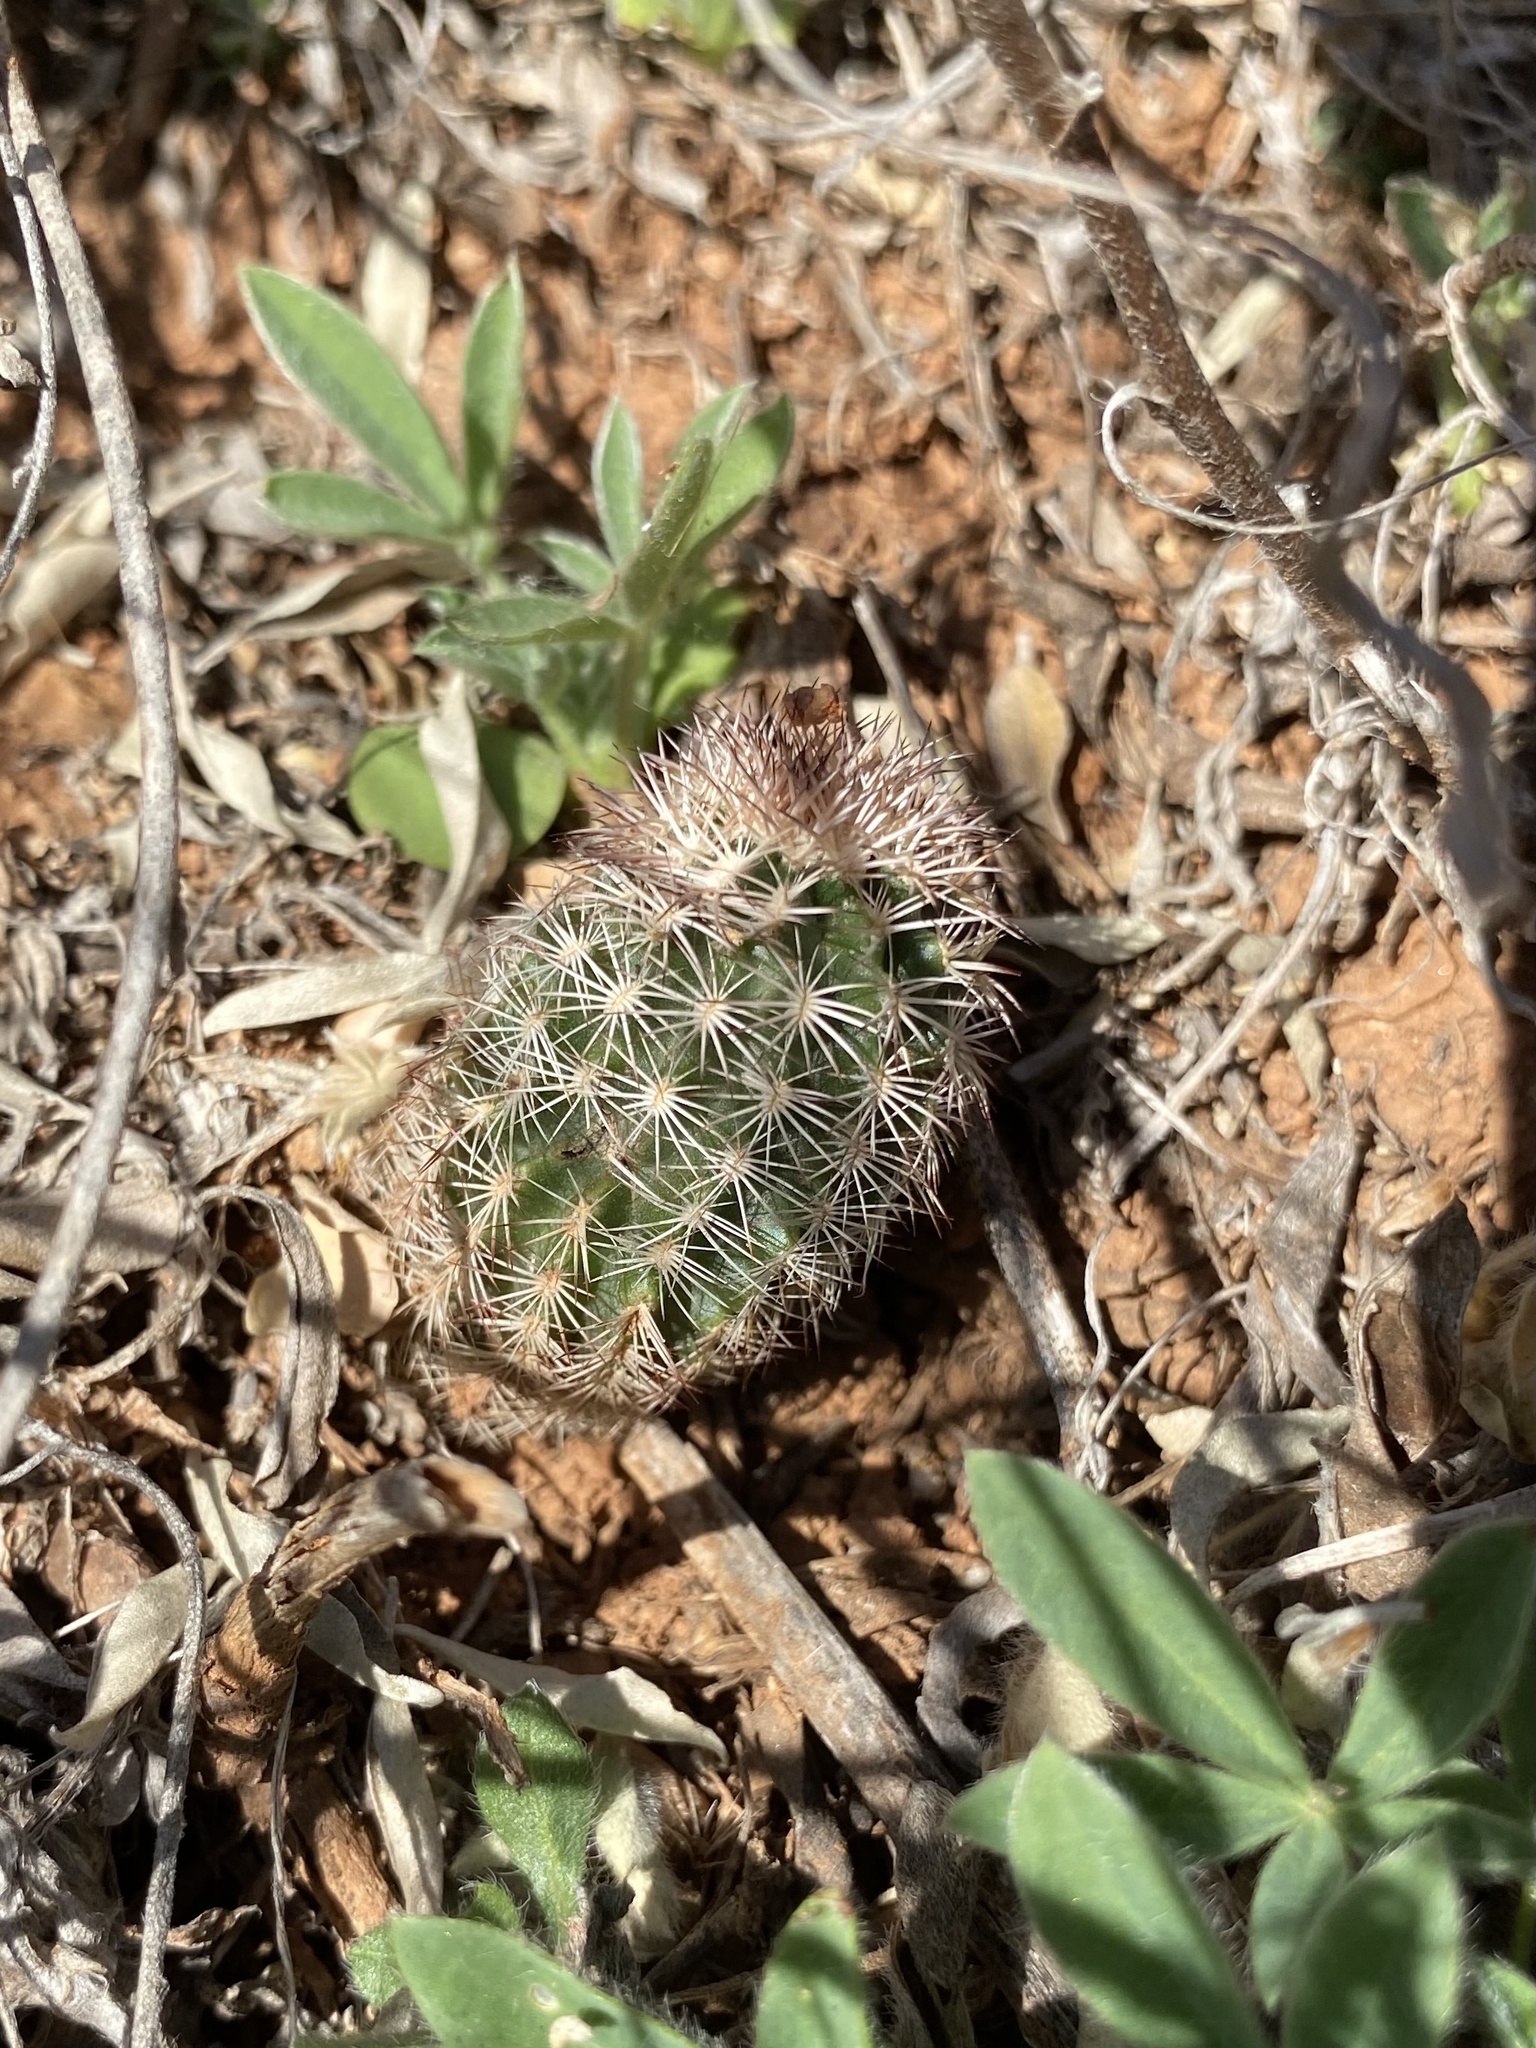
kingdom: Plantae
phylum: Tracheophyta
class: Magnoliopsida
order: Caryophyllales
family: Cactaceae
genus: Echinocereus
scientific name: Echinocereus reichenbachii
